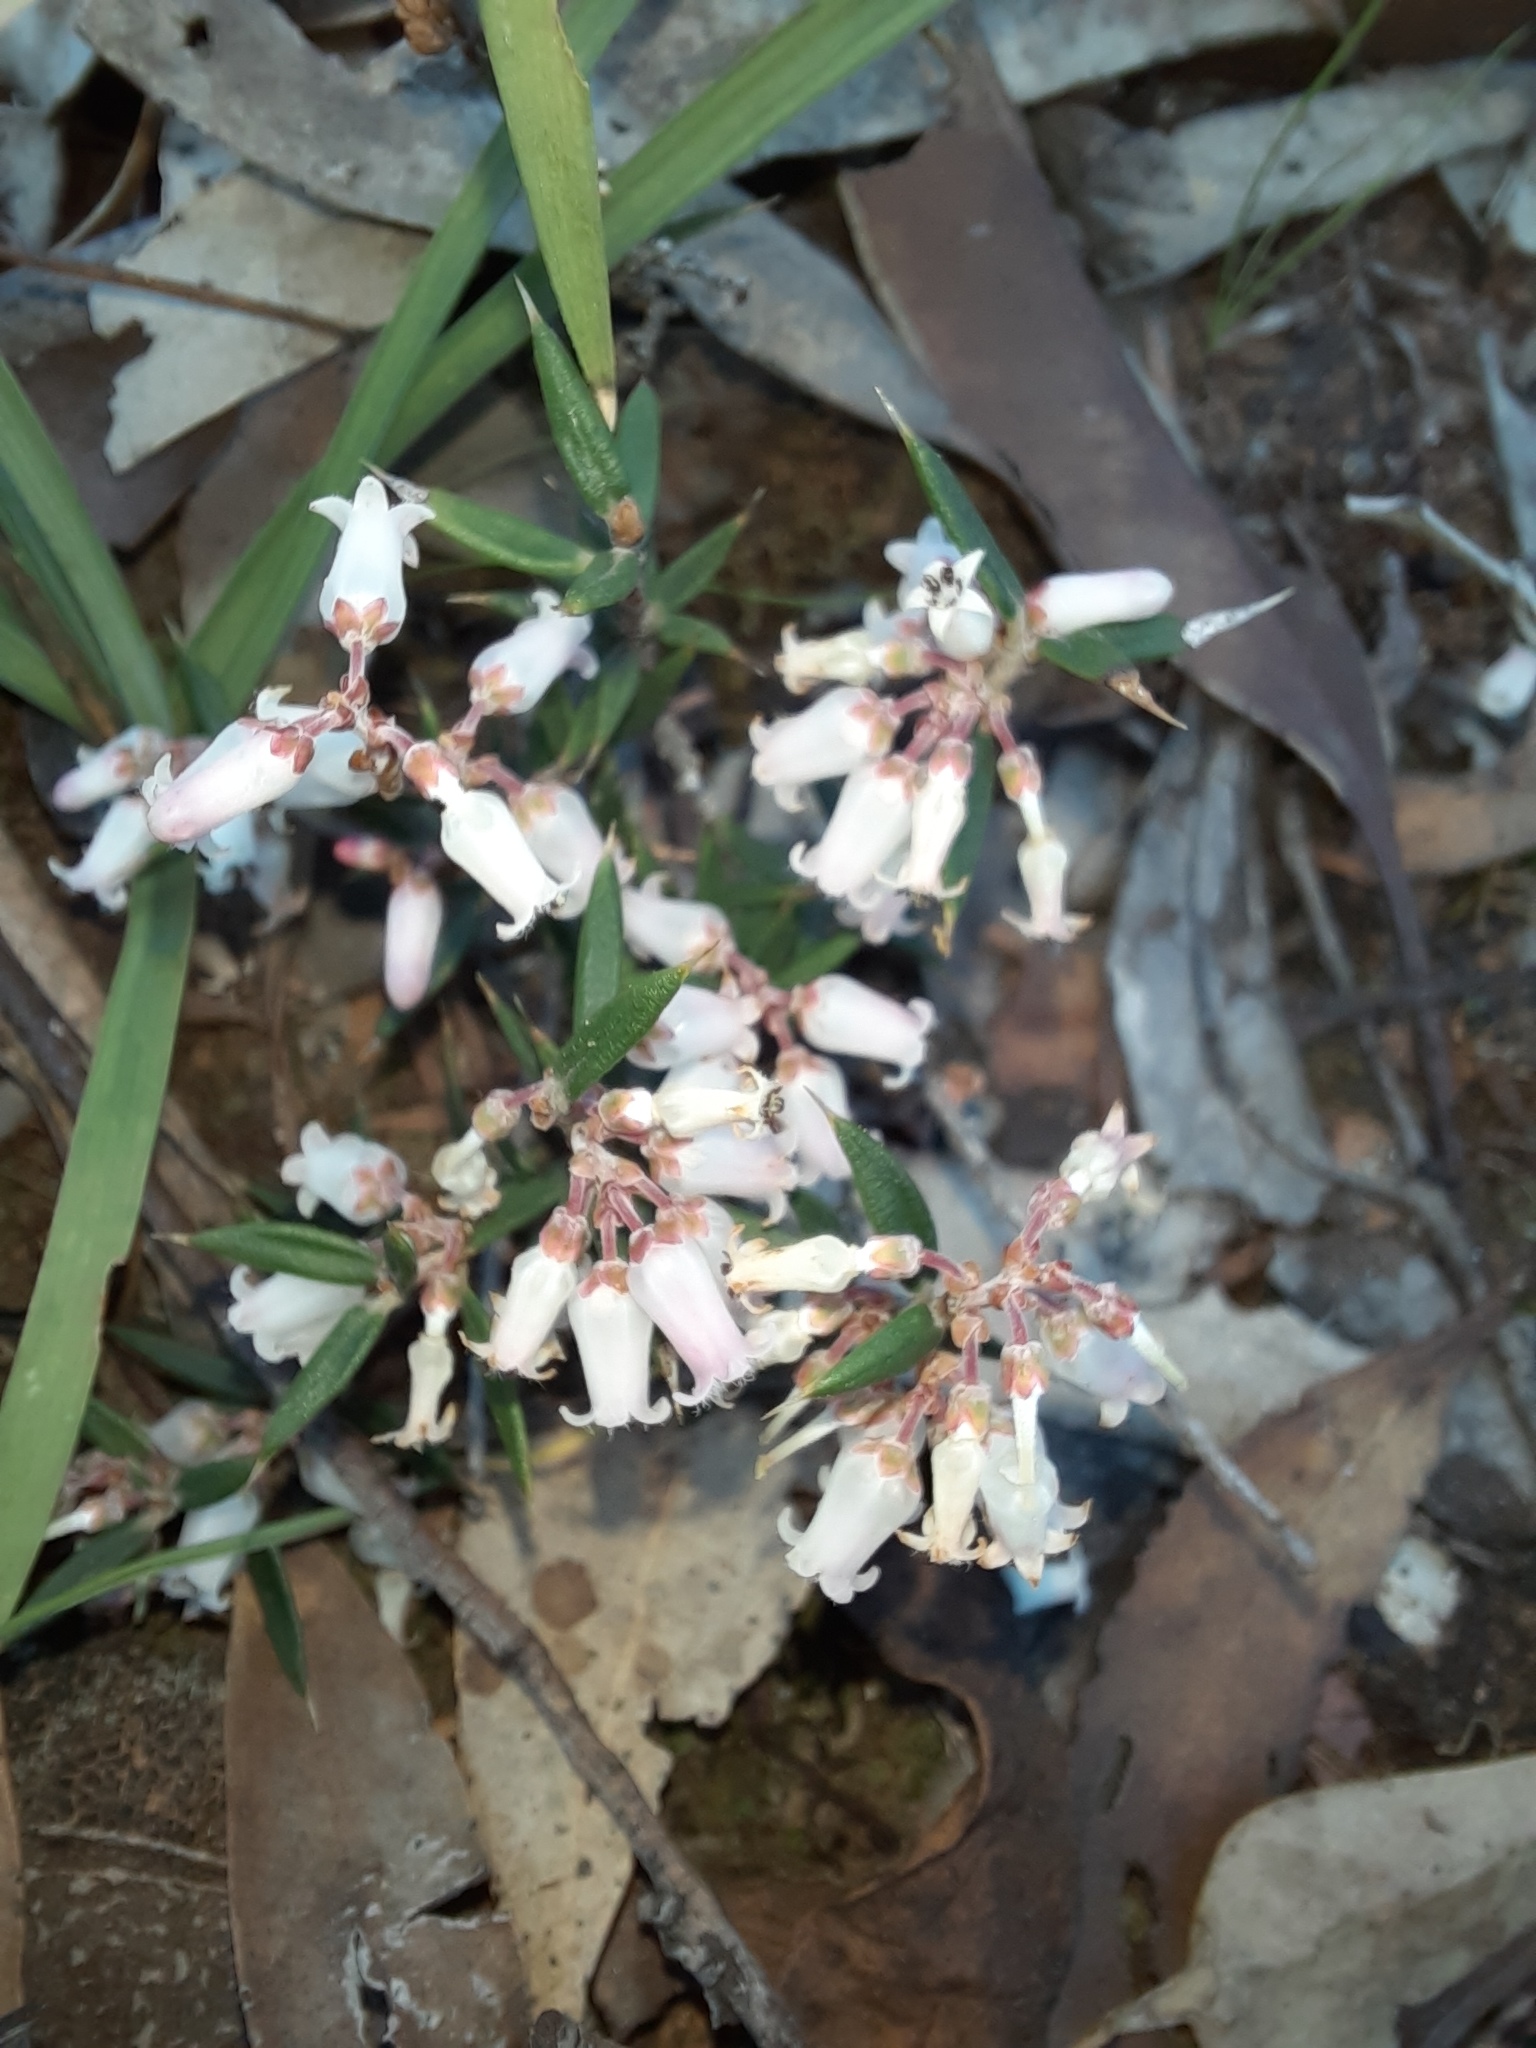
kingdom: Plantae
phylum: Tracheophyta
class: Magnoliopsida
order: Ericales
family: Ericaceae
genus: Lissanthe
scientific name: Lissanthe strigosa
